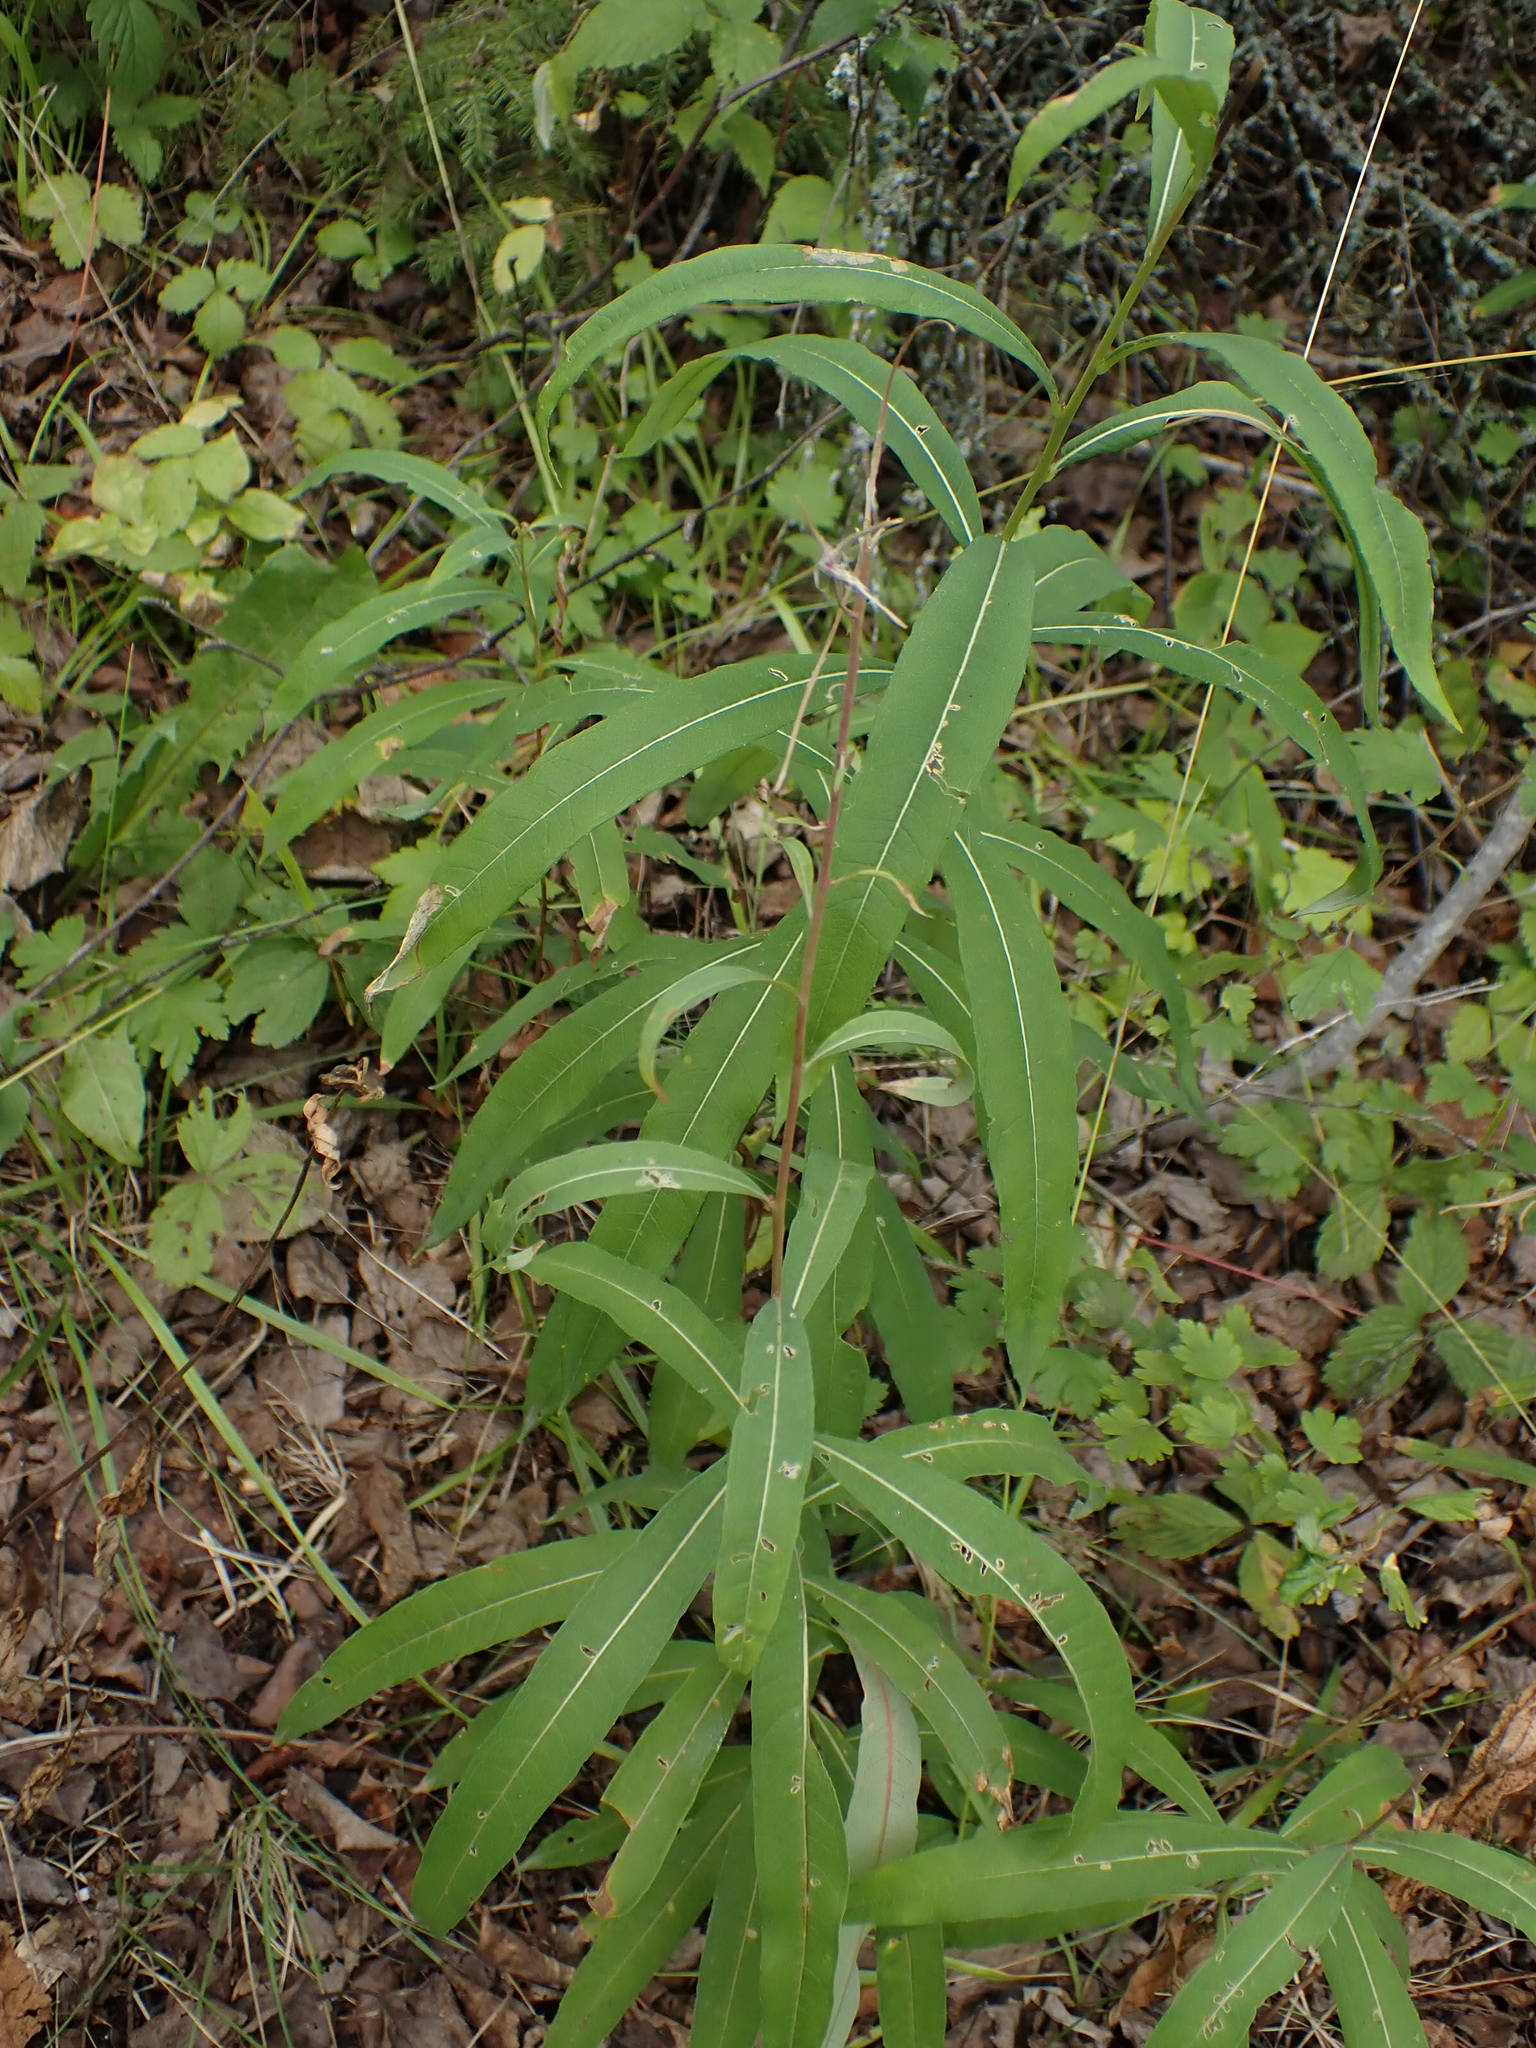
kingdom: Plantae
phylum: Tracheophyta
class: Magnoliopsida
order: Myrtales
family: Onagraceae
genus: Chamaenerion
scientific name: Chamaenerion angustifolium
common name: Fireweed
